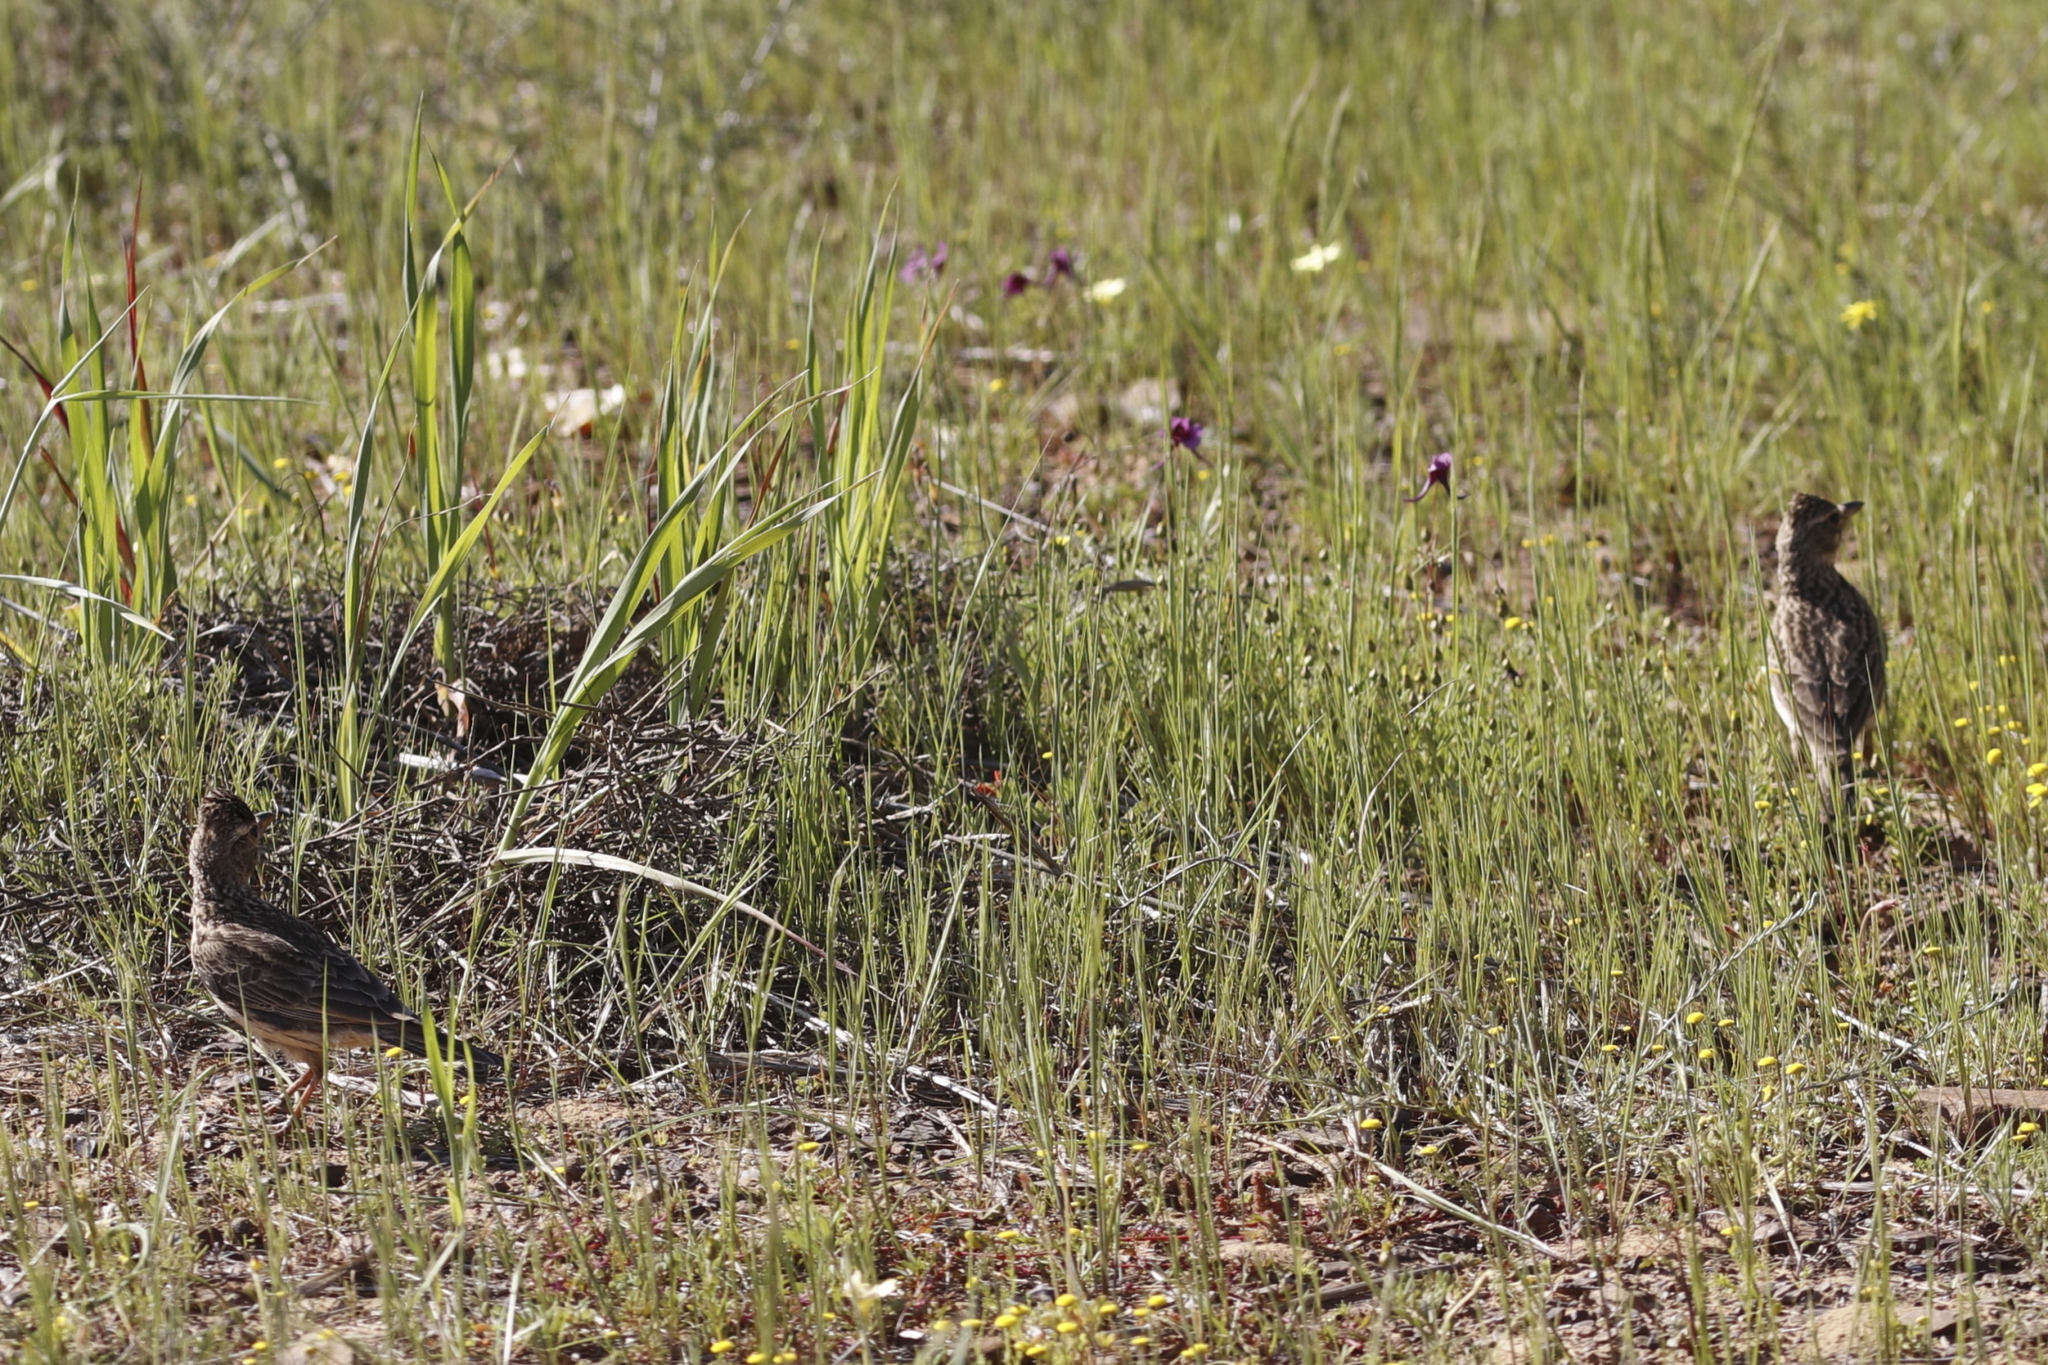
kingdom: Animalia
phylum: Chordata
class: Aves
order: Passeriformes
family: Alaudidae
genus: Galerida
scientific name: Galerida magnirostris
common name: Large-billed lark
